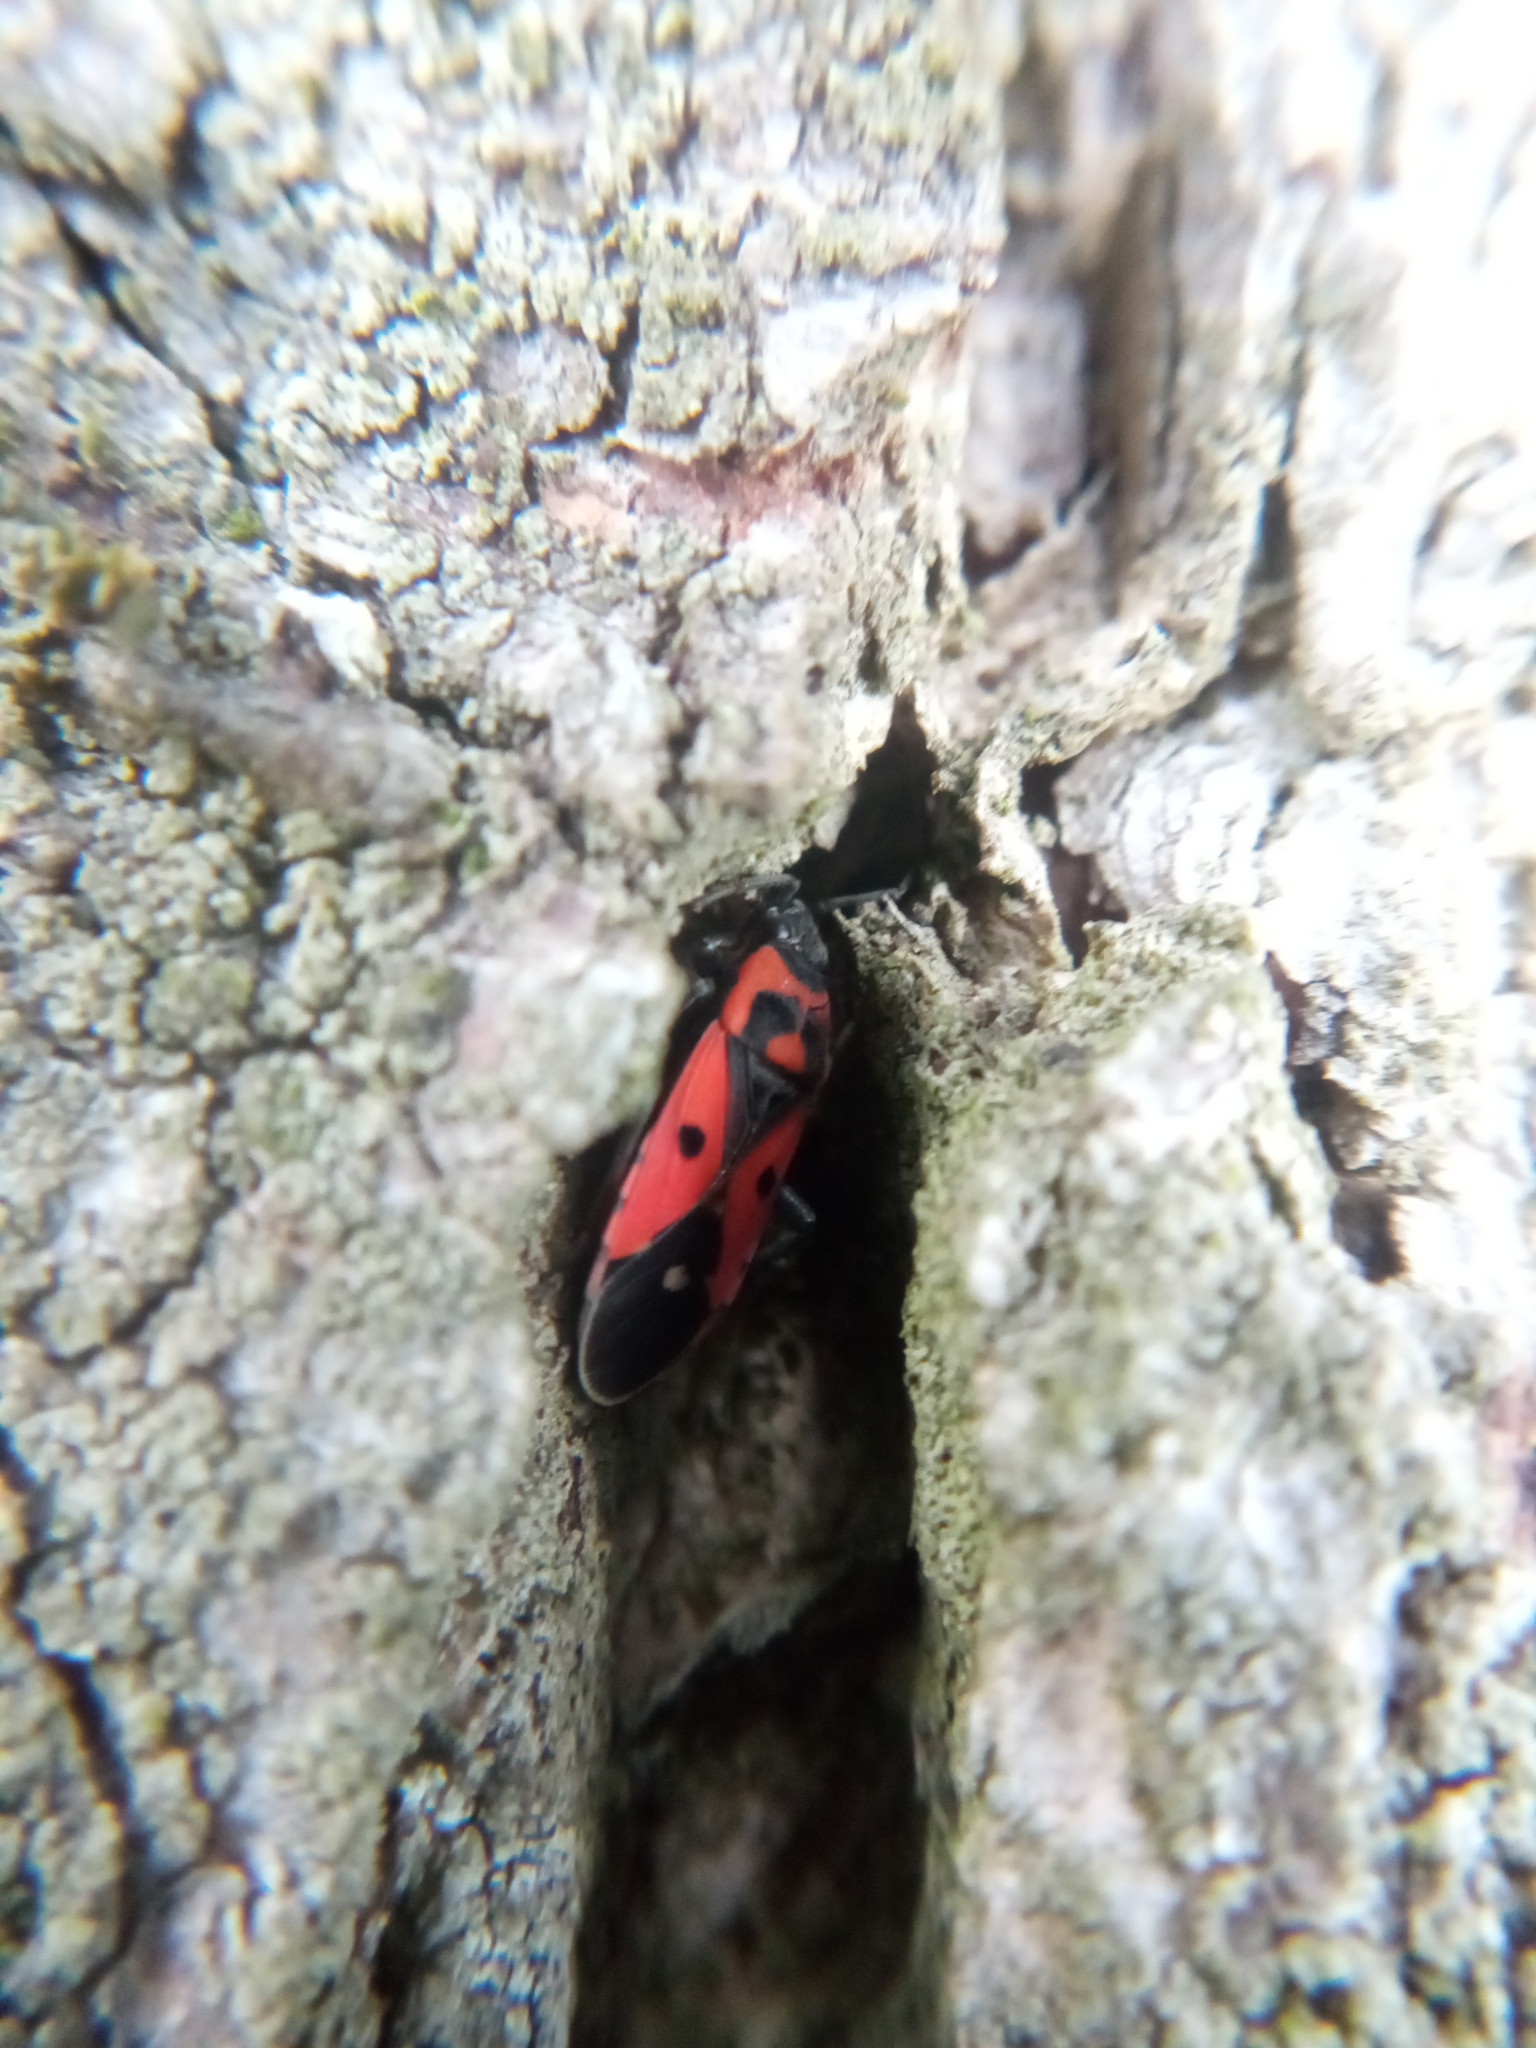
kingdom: Animalia
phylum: Arthropoda
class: Insecta
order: Hemiptera
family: Lygaeidae
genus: Melanocoryphus
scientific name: Melanocoryphus albomaculatus
